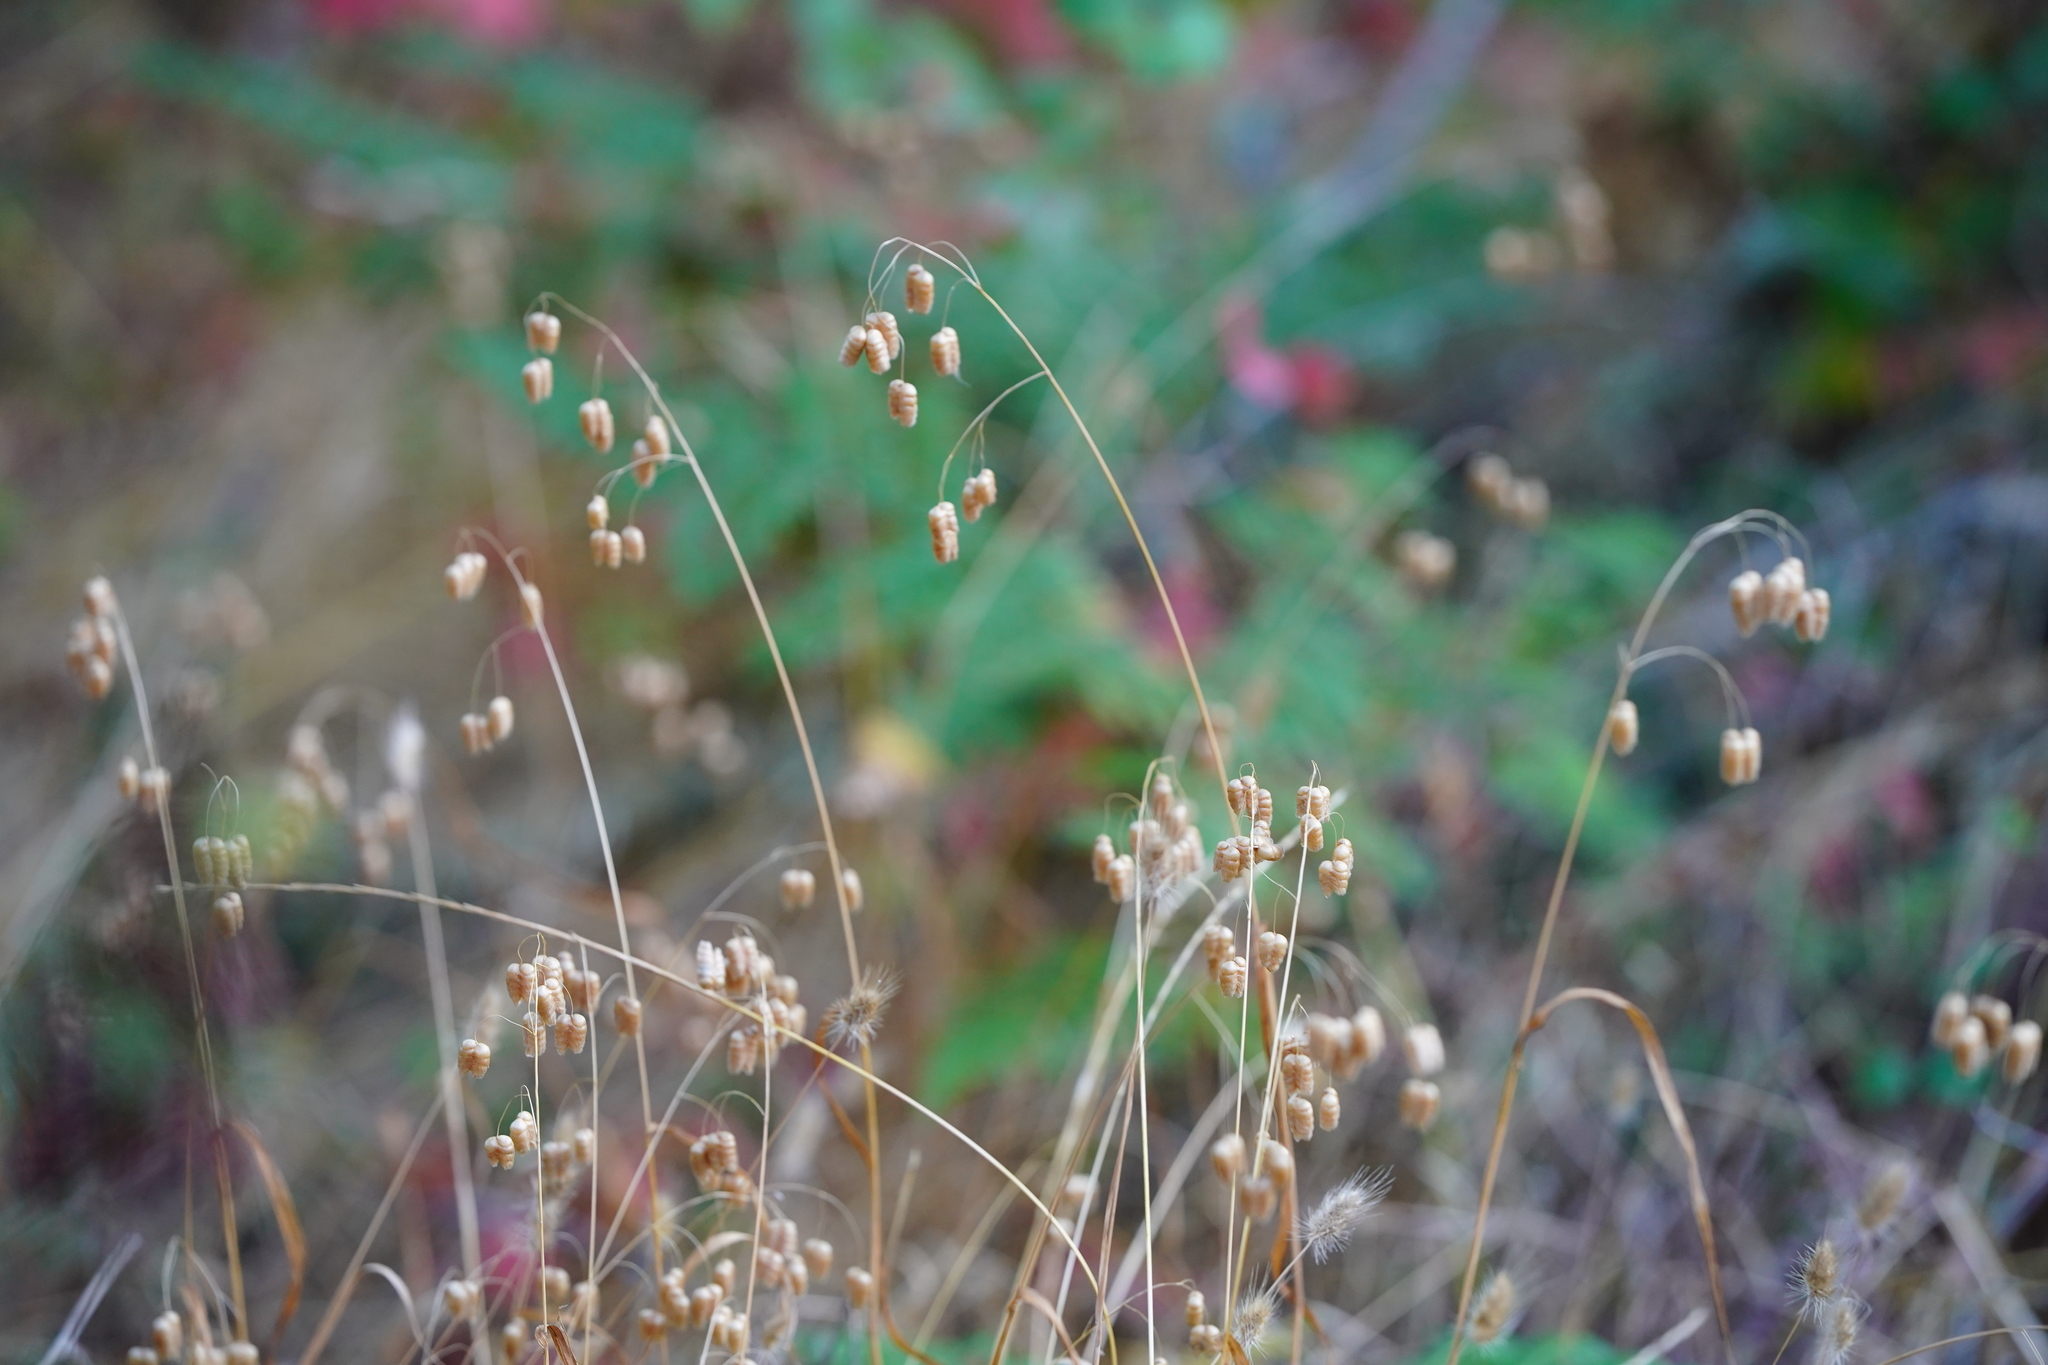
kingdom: Plantae
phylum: Tracheophyta
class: Liliopsida
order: Poales
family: Poaceae
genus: Briza
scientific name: Briza maxima
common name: Big quakinggrass
